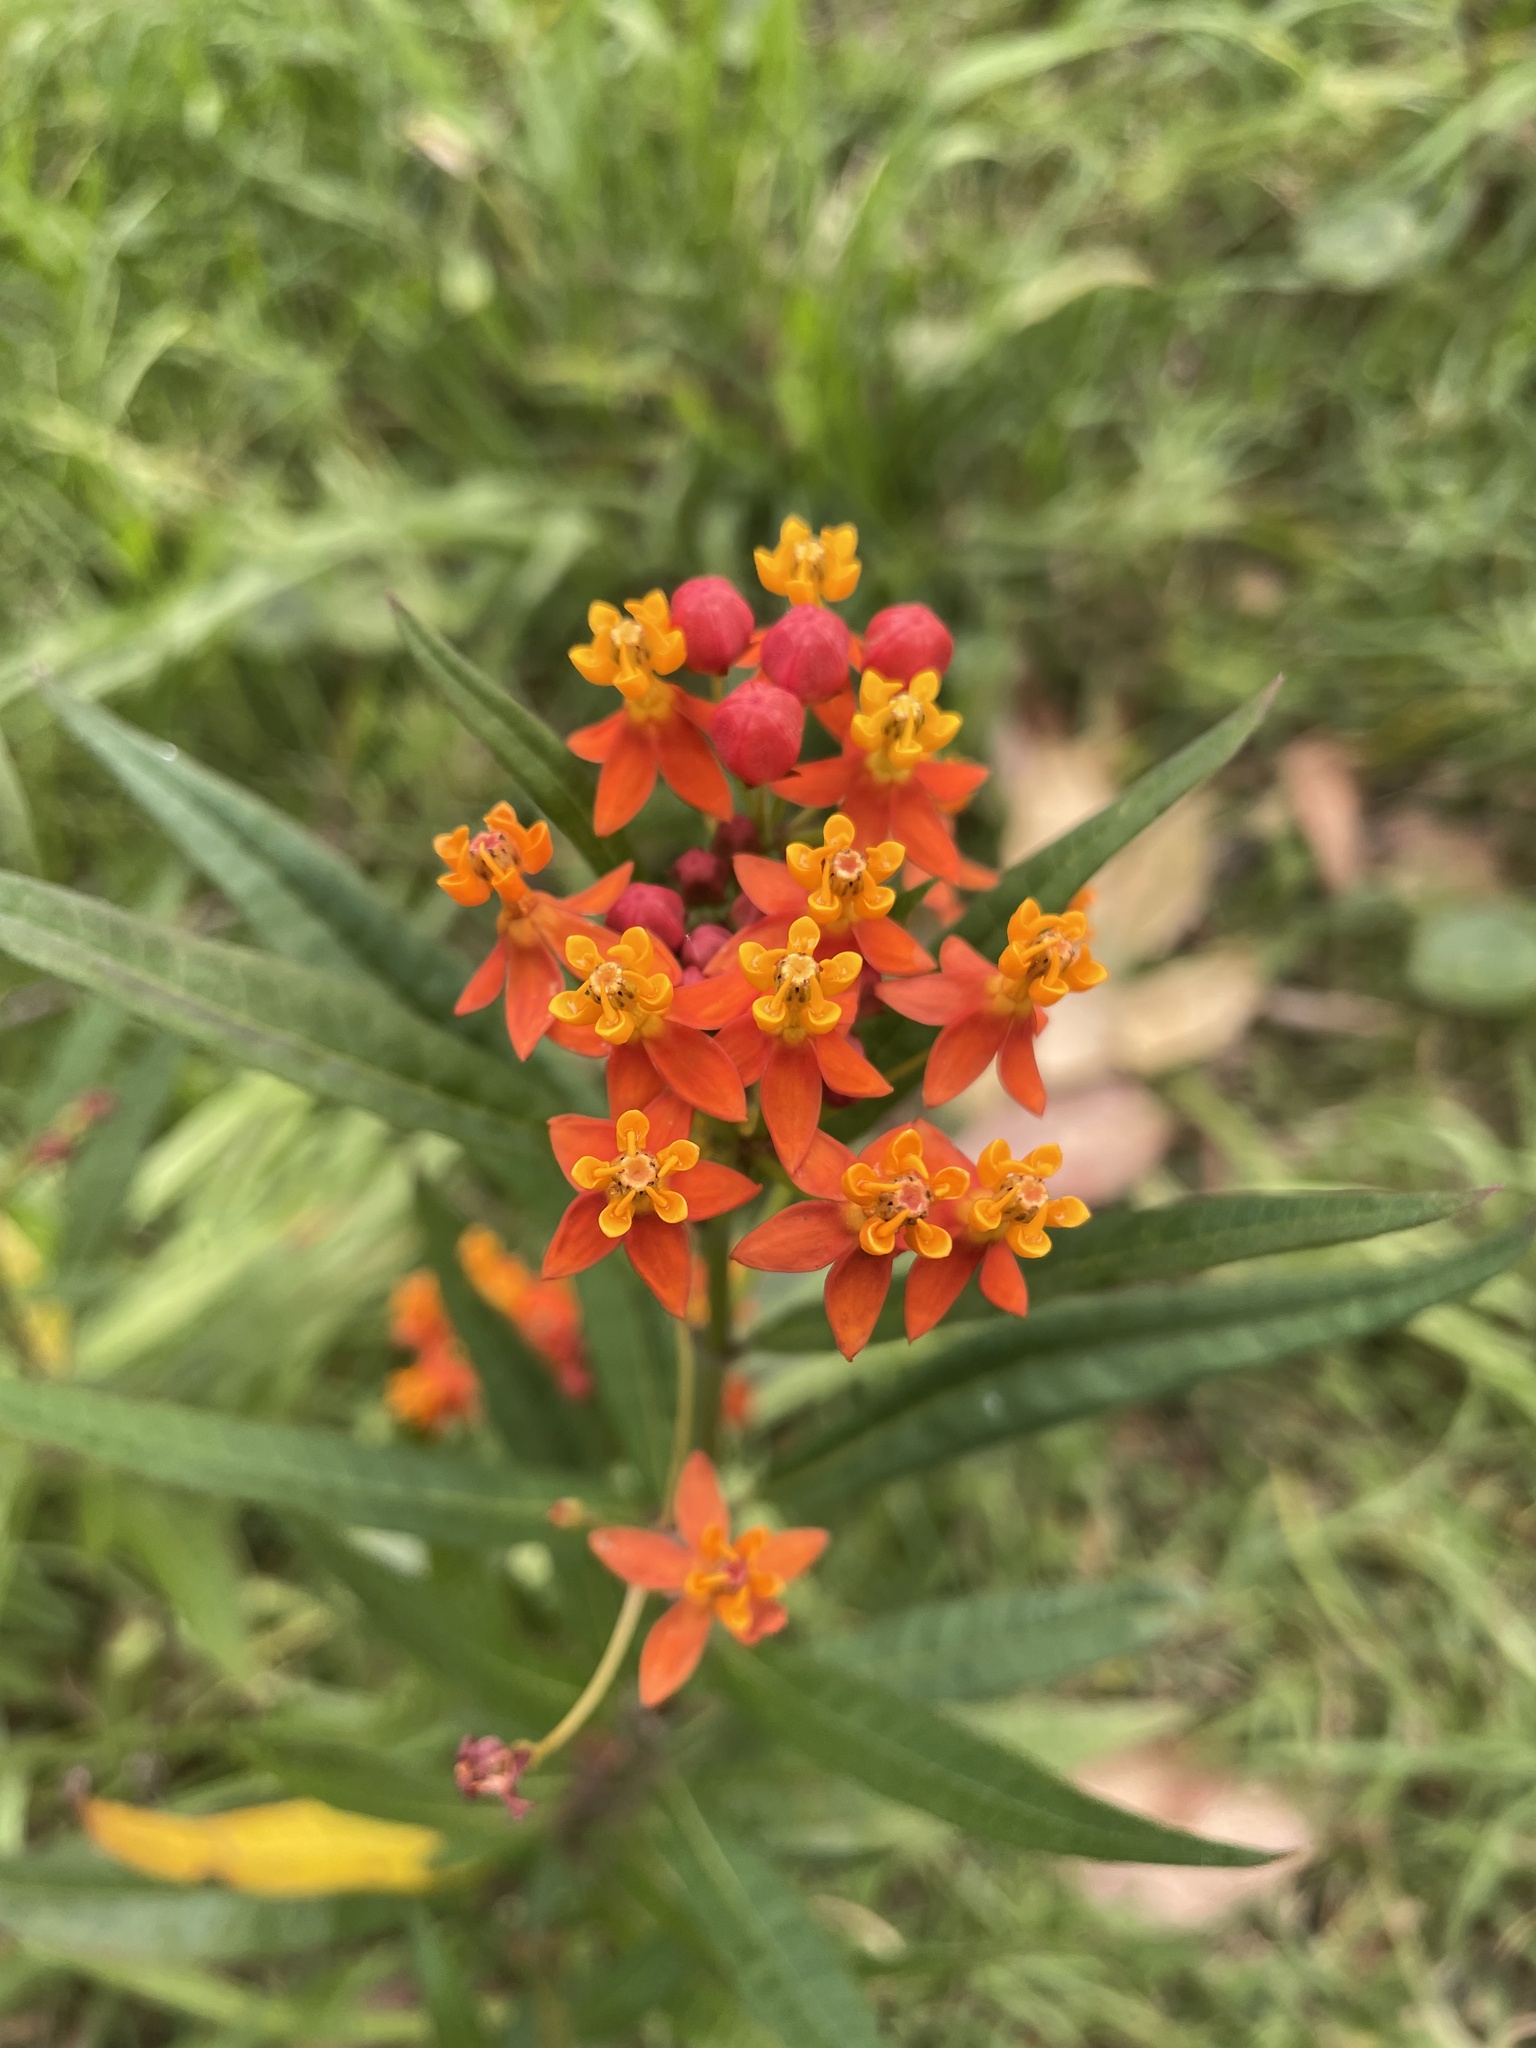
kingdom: Plantae
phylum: Tracheophyta
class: Magnoliopsida
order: Gentianales
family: Apocynaceae
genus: Asclepias
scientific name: Asclepias curassavica
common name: Bloodflower
